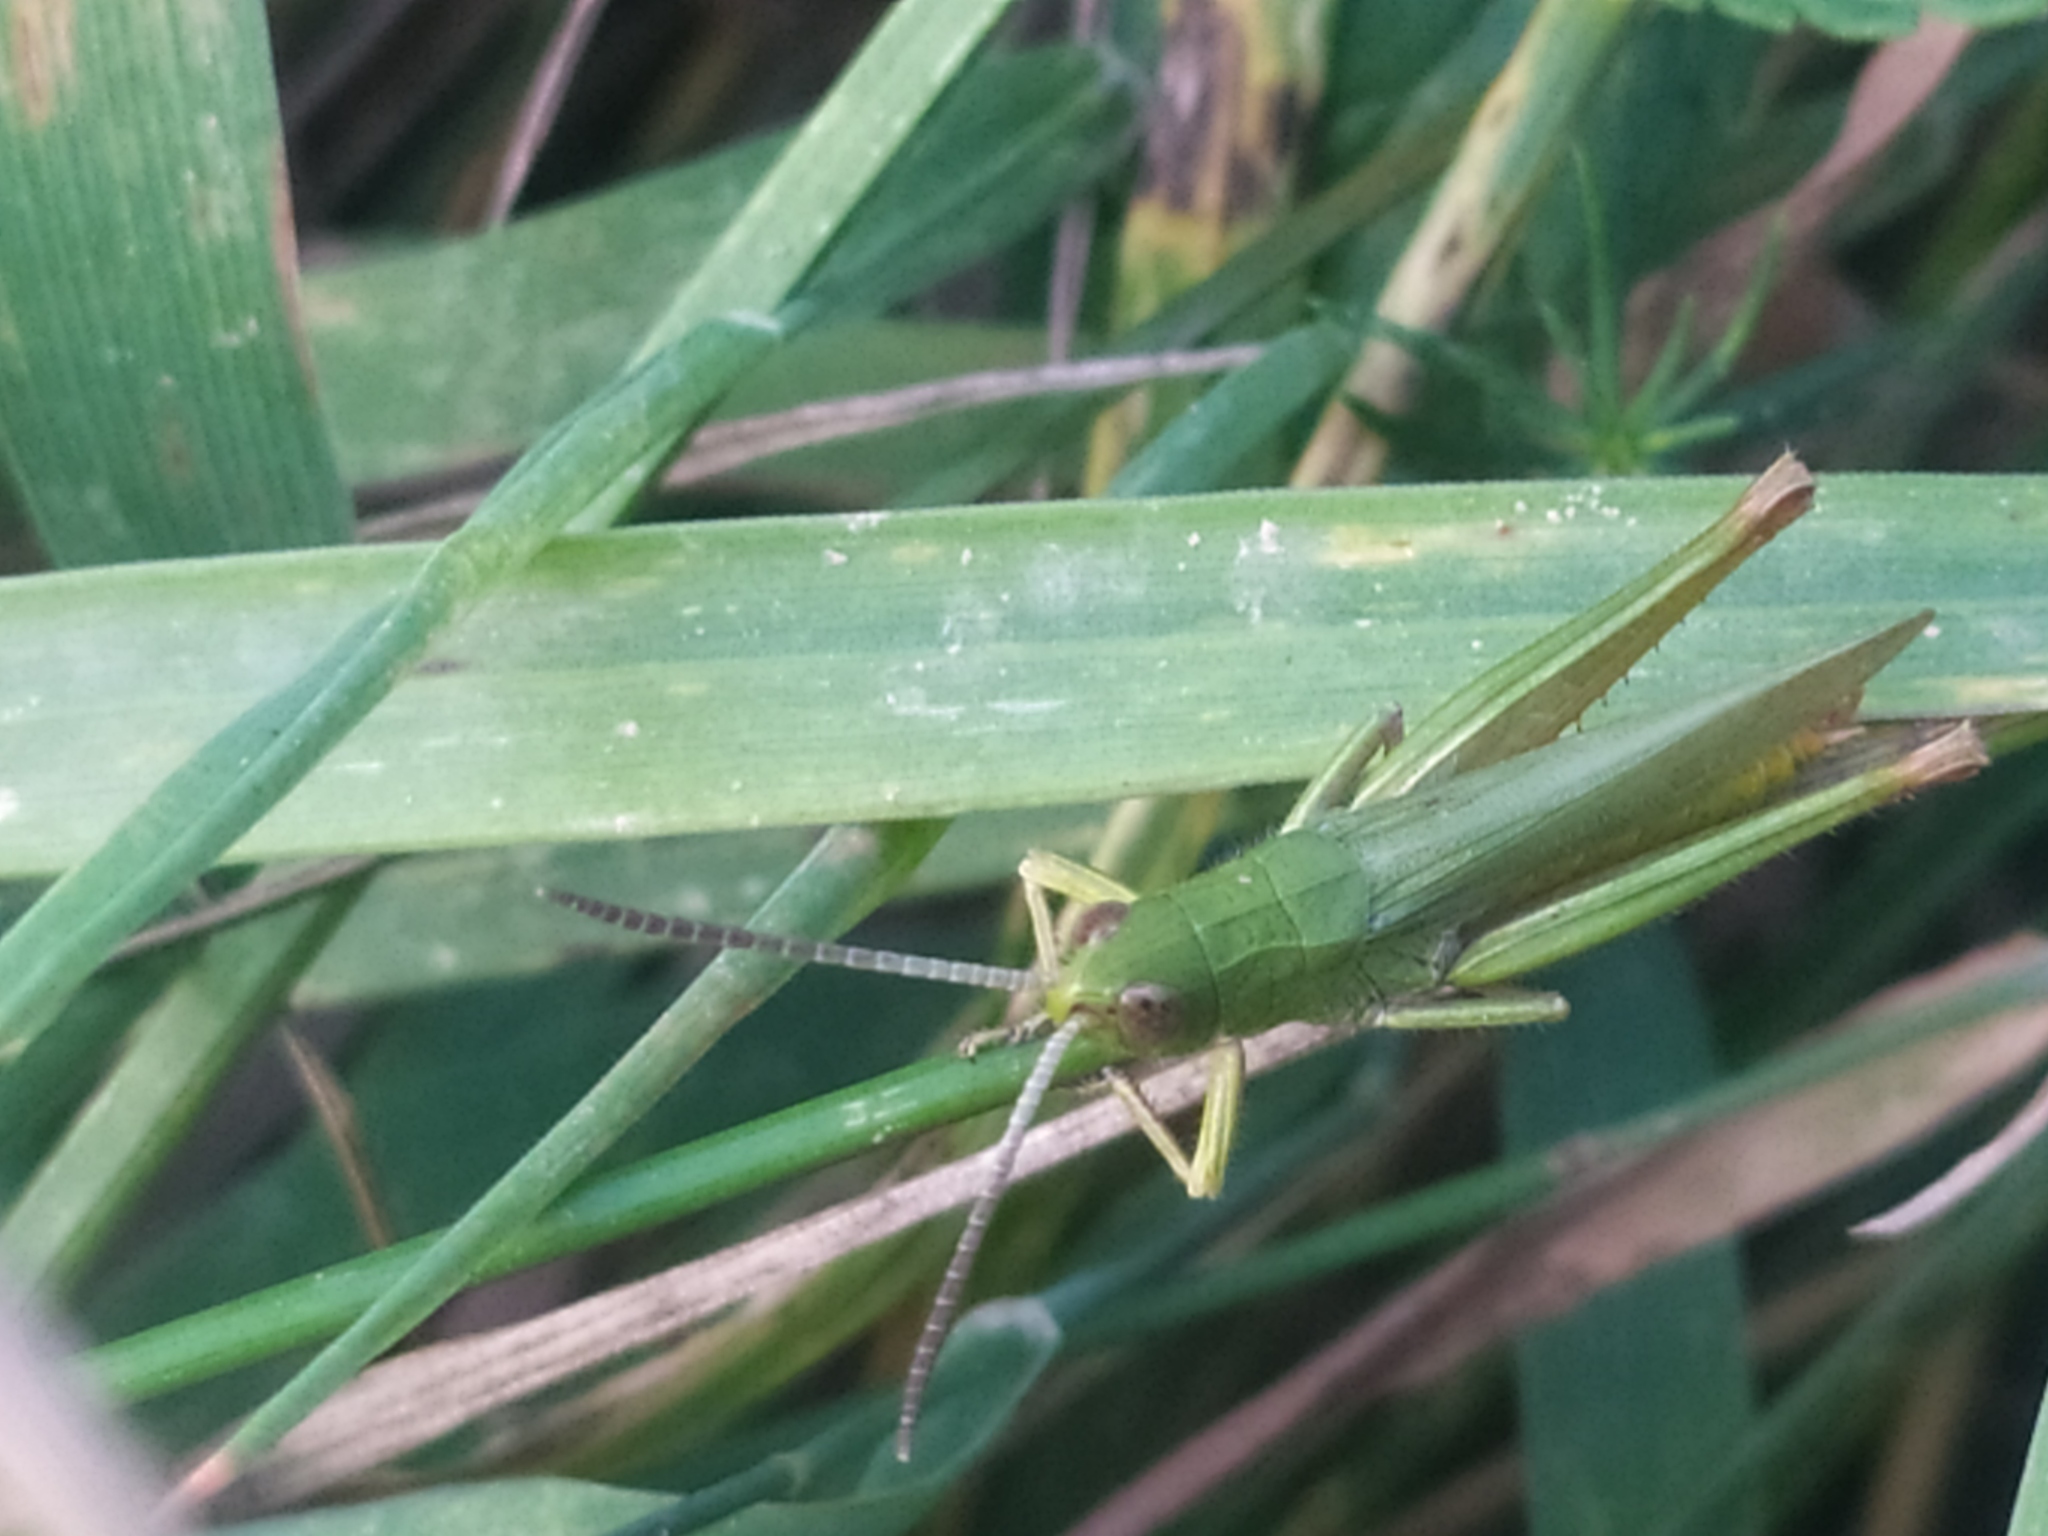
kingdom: Animalia
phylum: Arthropoda
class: Insecta
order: Orthoptera
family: Acrididae
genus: Chorthippus
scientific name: Chorthippus dorsatus
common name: Steppe grasshopper
